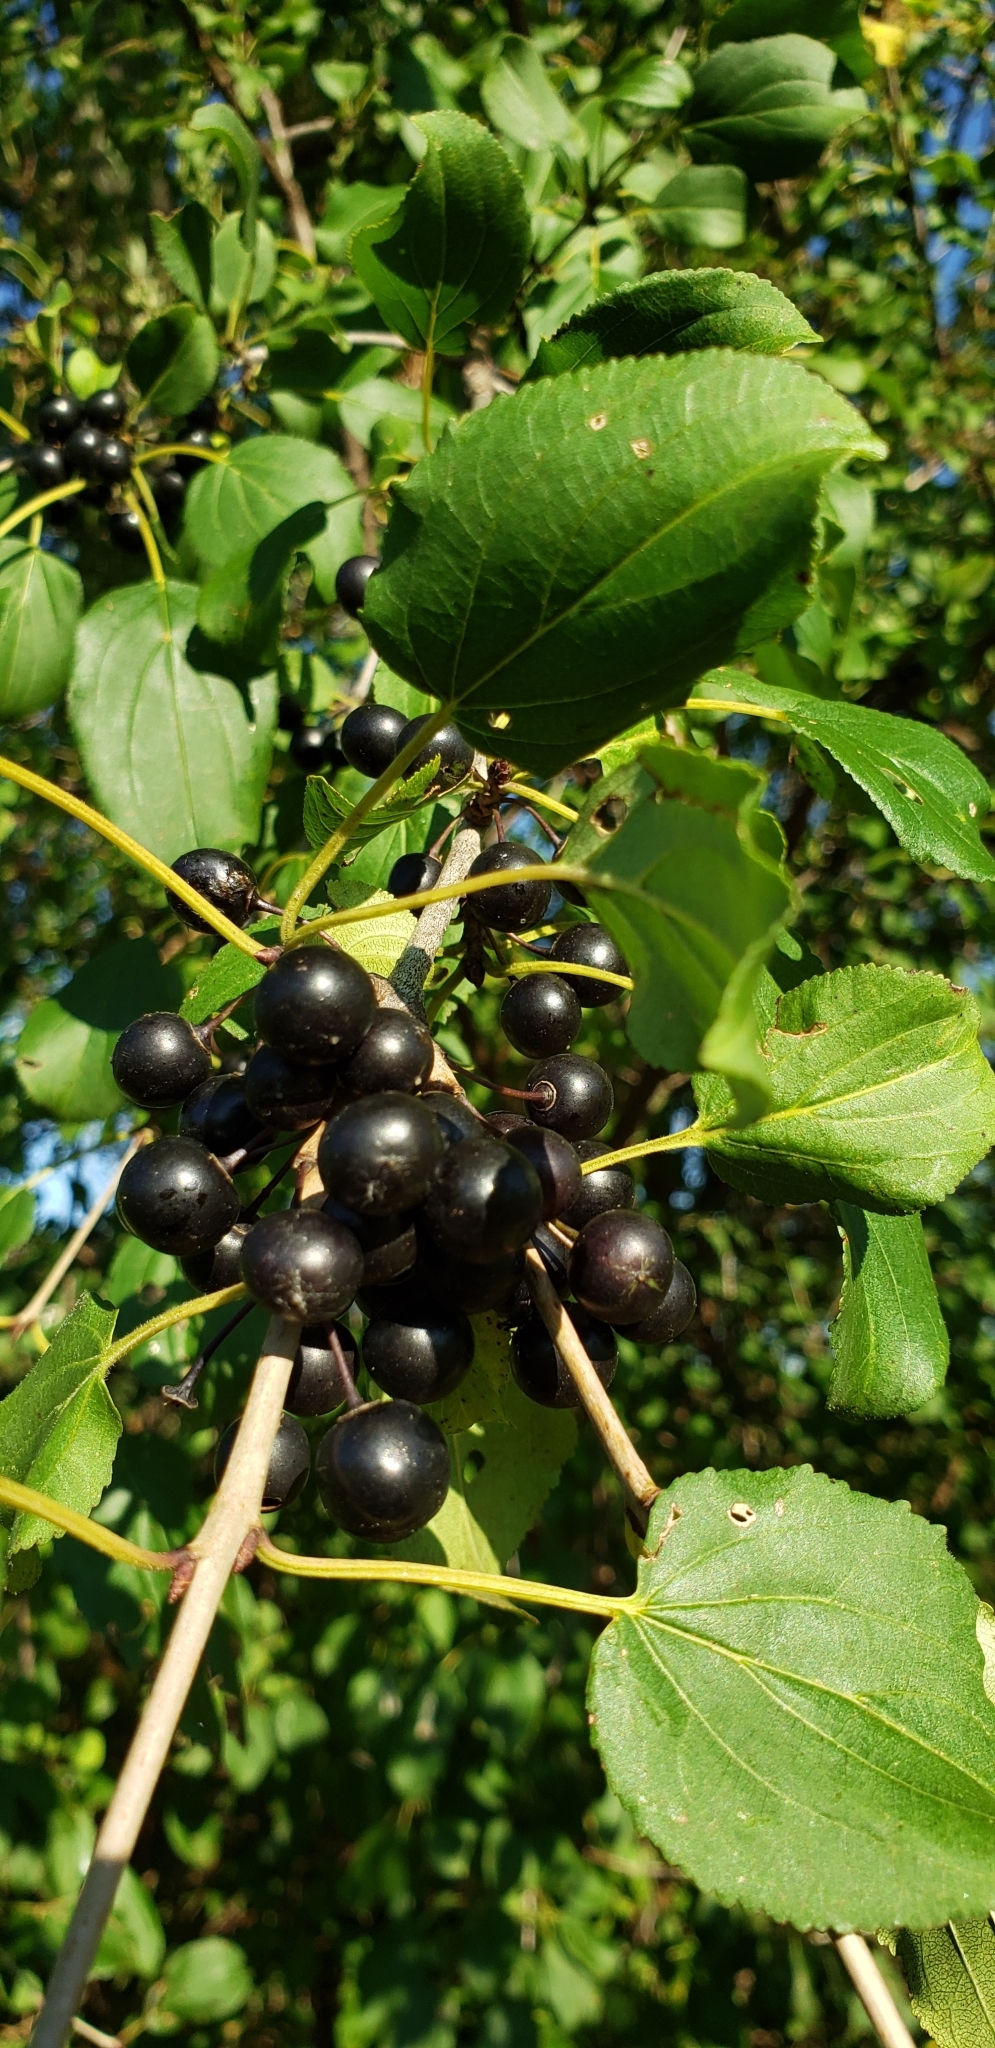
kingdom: Plantae
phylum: Tracheophyta
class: Magnoliopsida
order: Rosales
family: Rhamnaceae
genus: Rhamnus
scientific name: Rhamnus cathartica
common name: Common buckthorn
